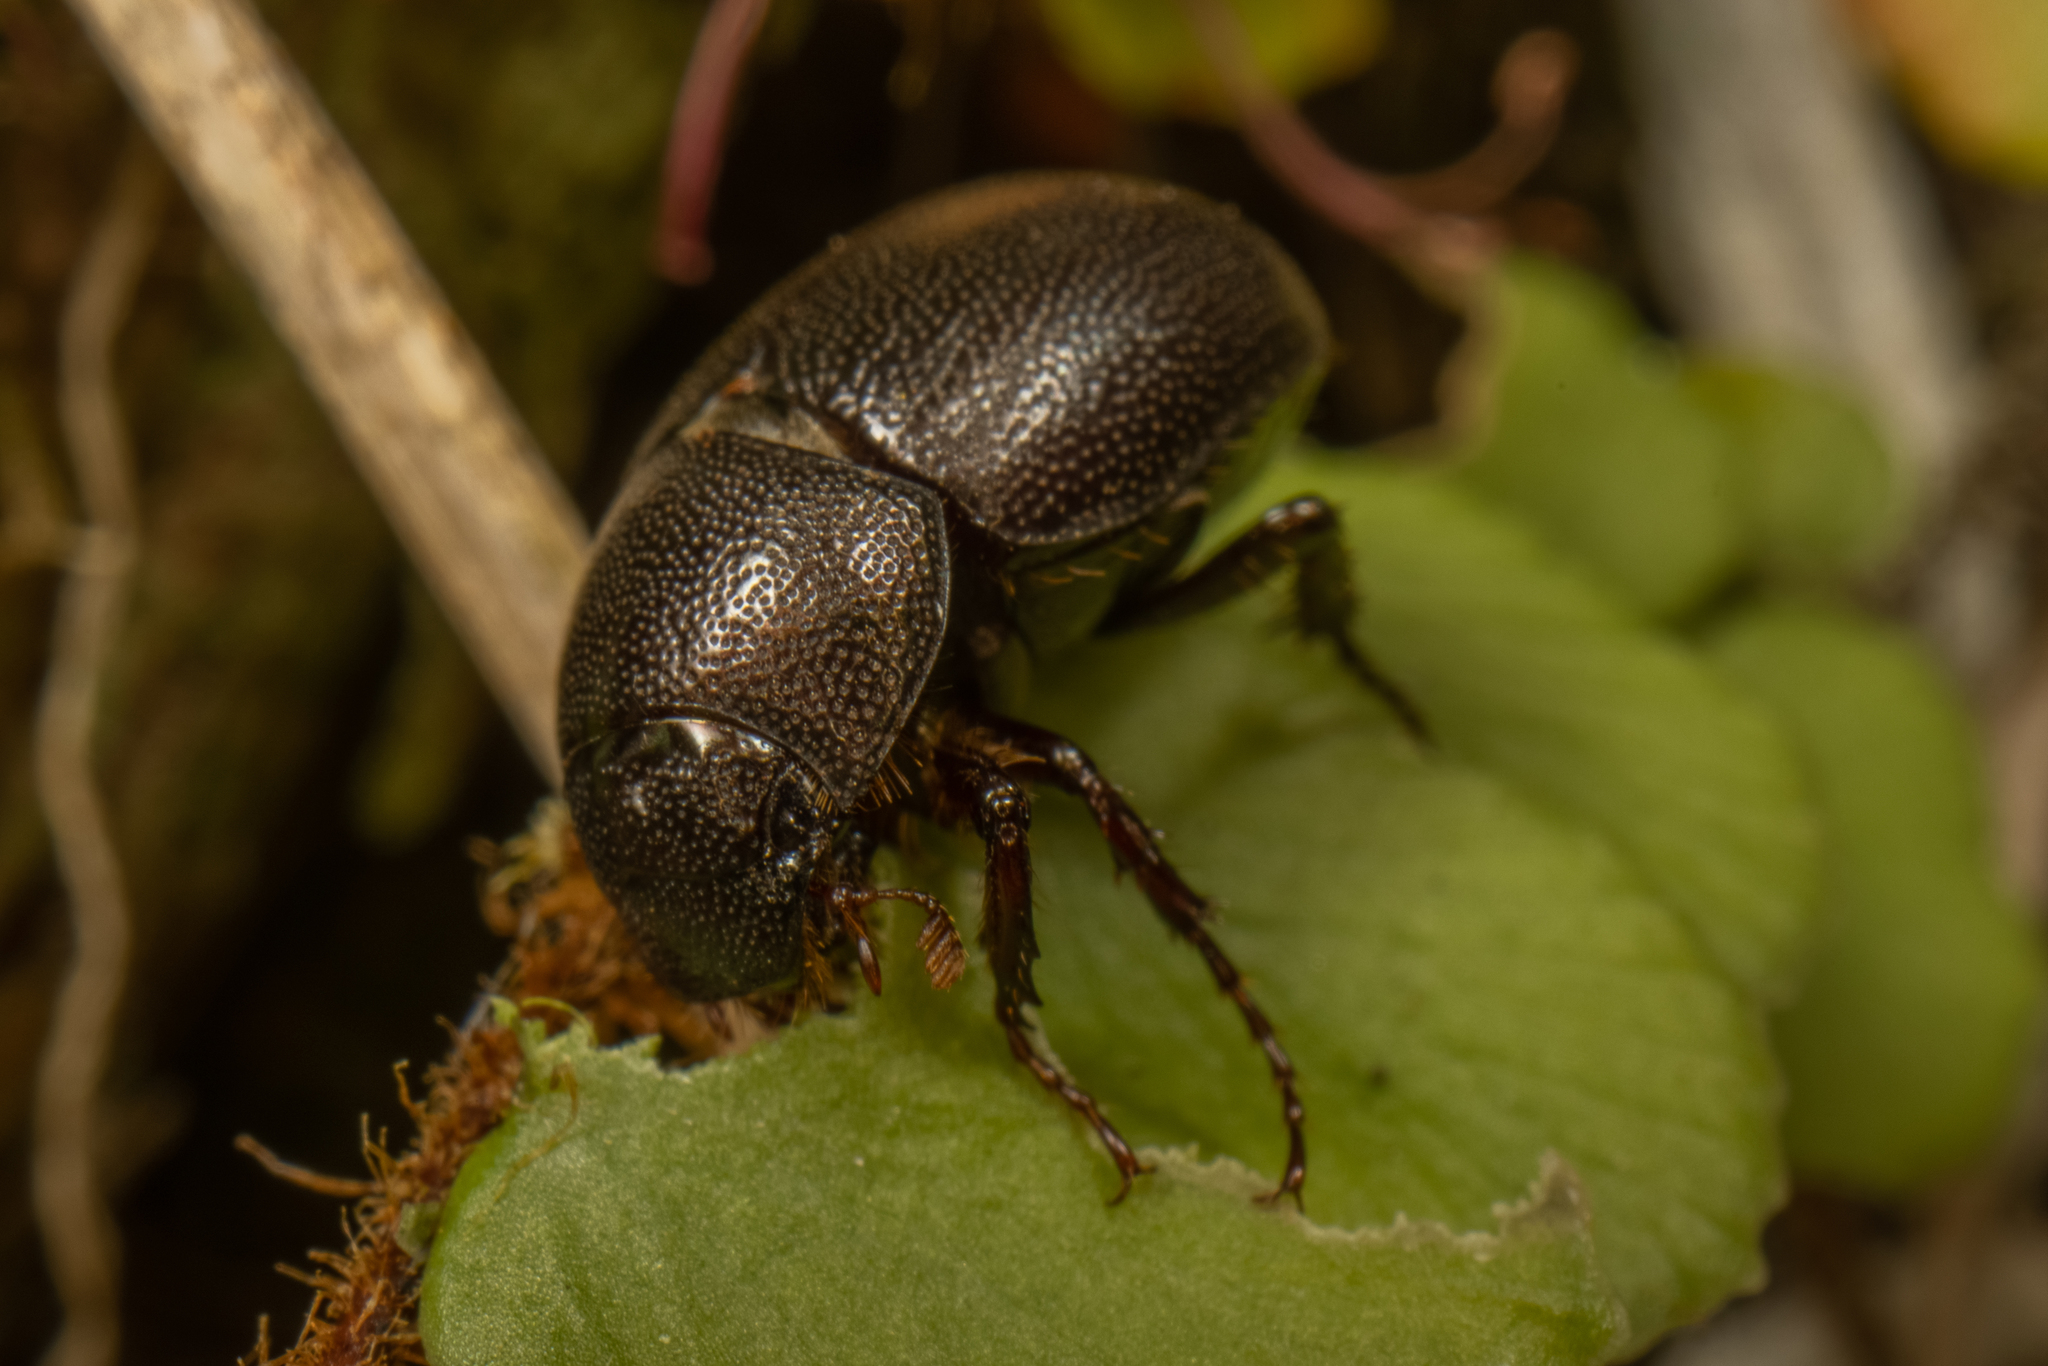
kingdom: Animalia
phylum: Arthropoda
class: Insecta
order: Coleoptera
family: Scarabaeidae
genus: Gnaphalopoda
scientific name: Gnaphalopoda piceus
